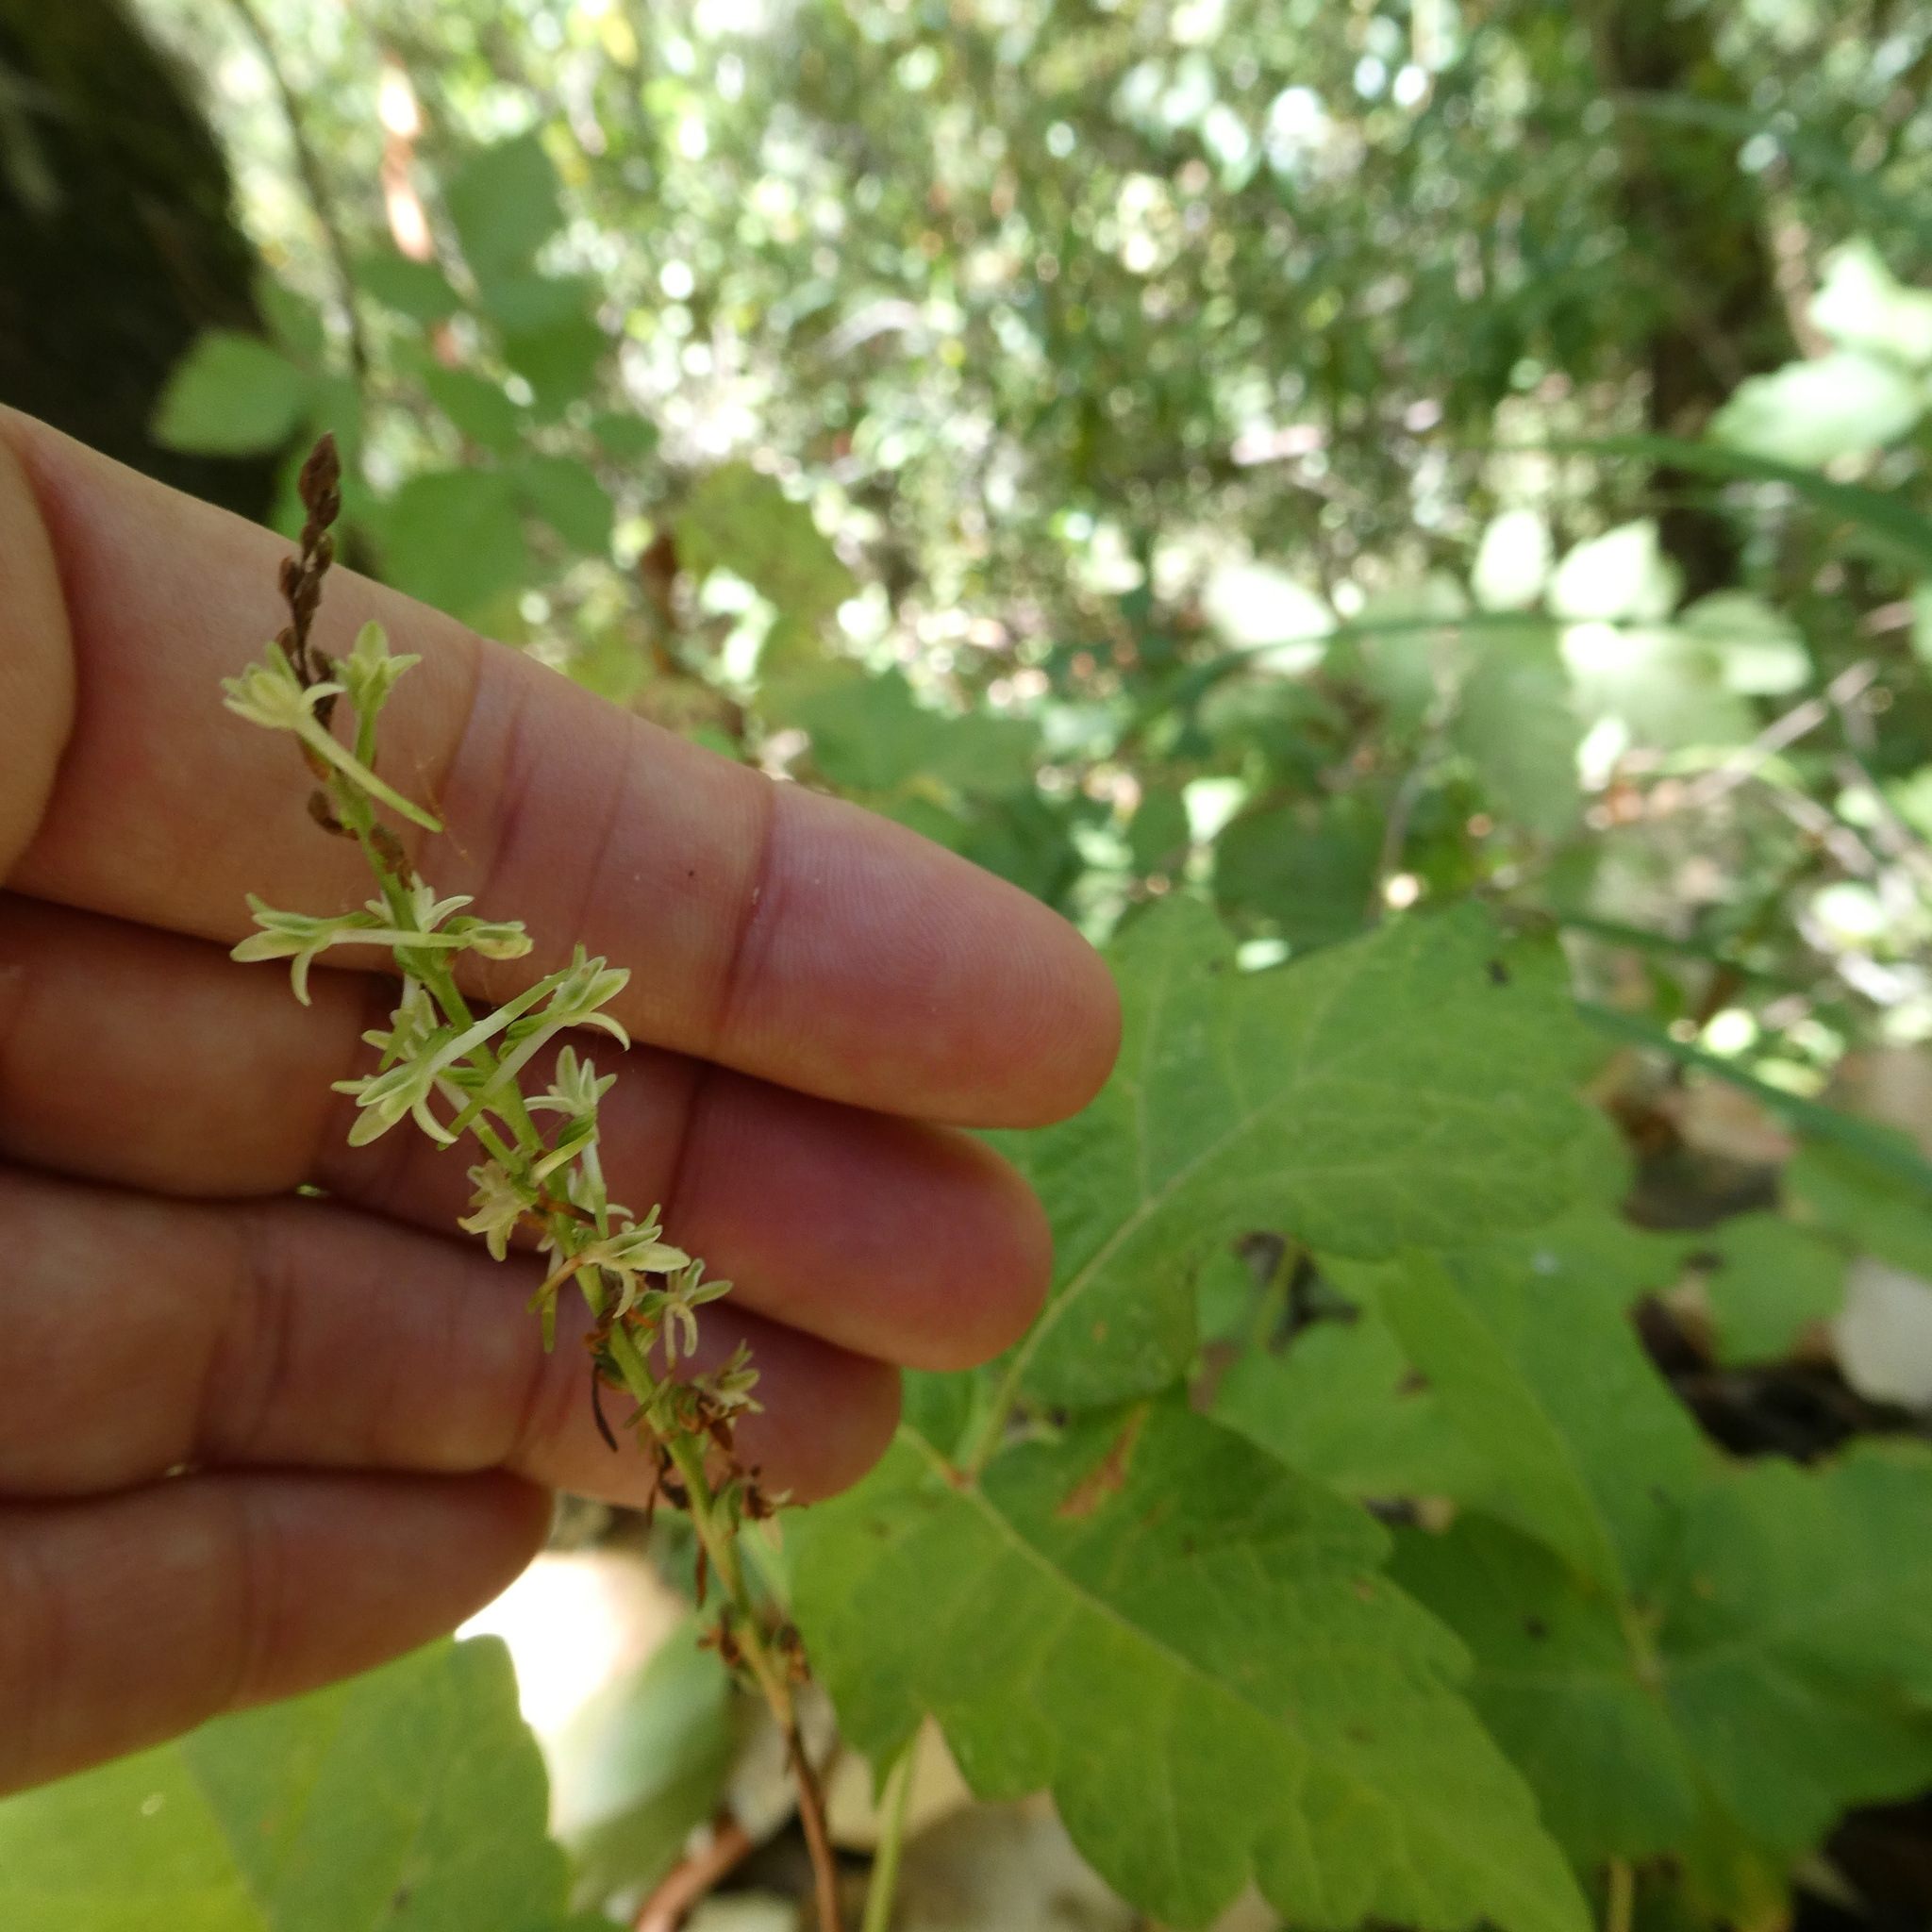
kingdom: Plantae
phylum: Tracheophyta
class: Liliopsida
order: Asparagales
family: Orchidaceae
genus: Platanthera
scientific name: Platanthera transversa
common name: Royal rein orchid
